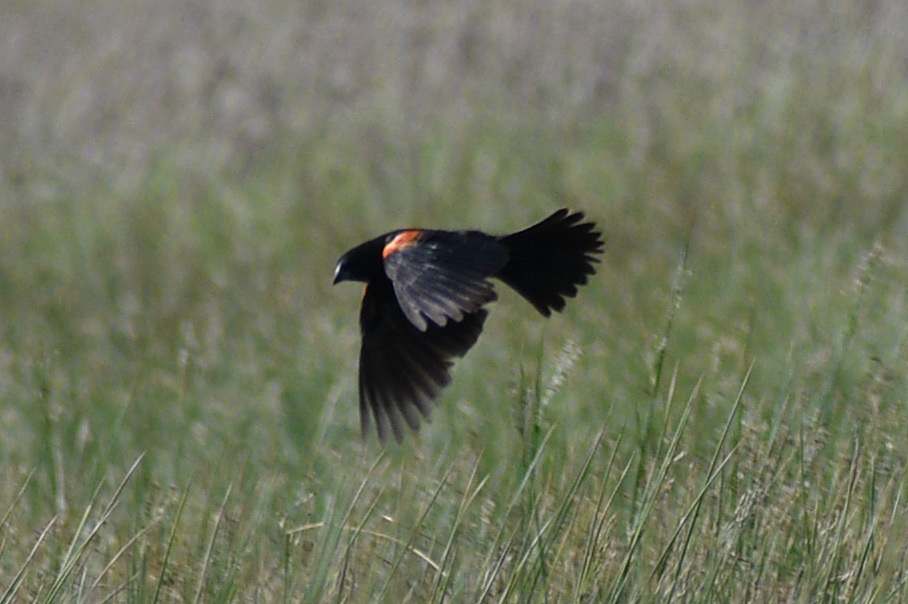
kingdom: Animalia
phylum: Chordata
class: Aves
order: Passeriformes
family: Icteridae
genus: Agelaius
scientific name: Agelaius phoeniceus
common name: Red-winged blackbird
